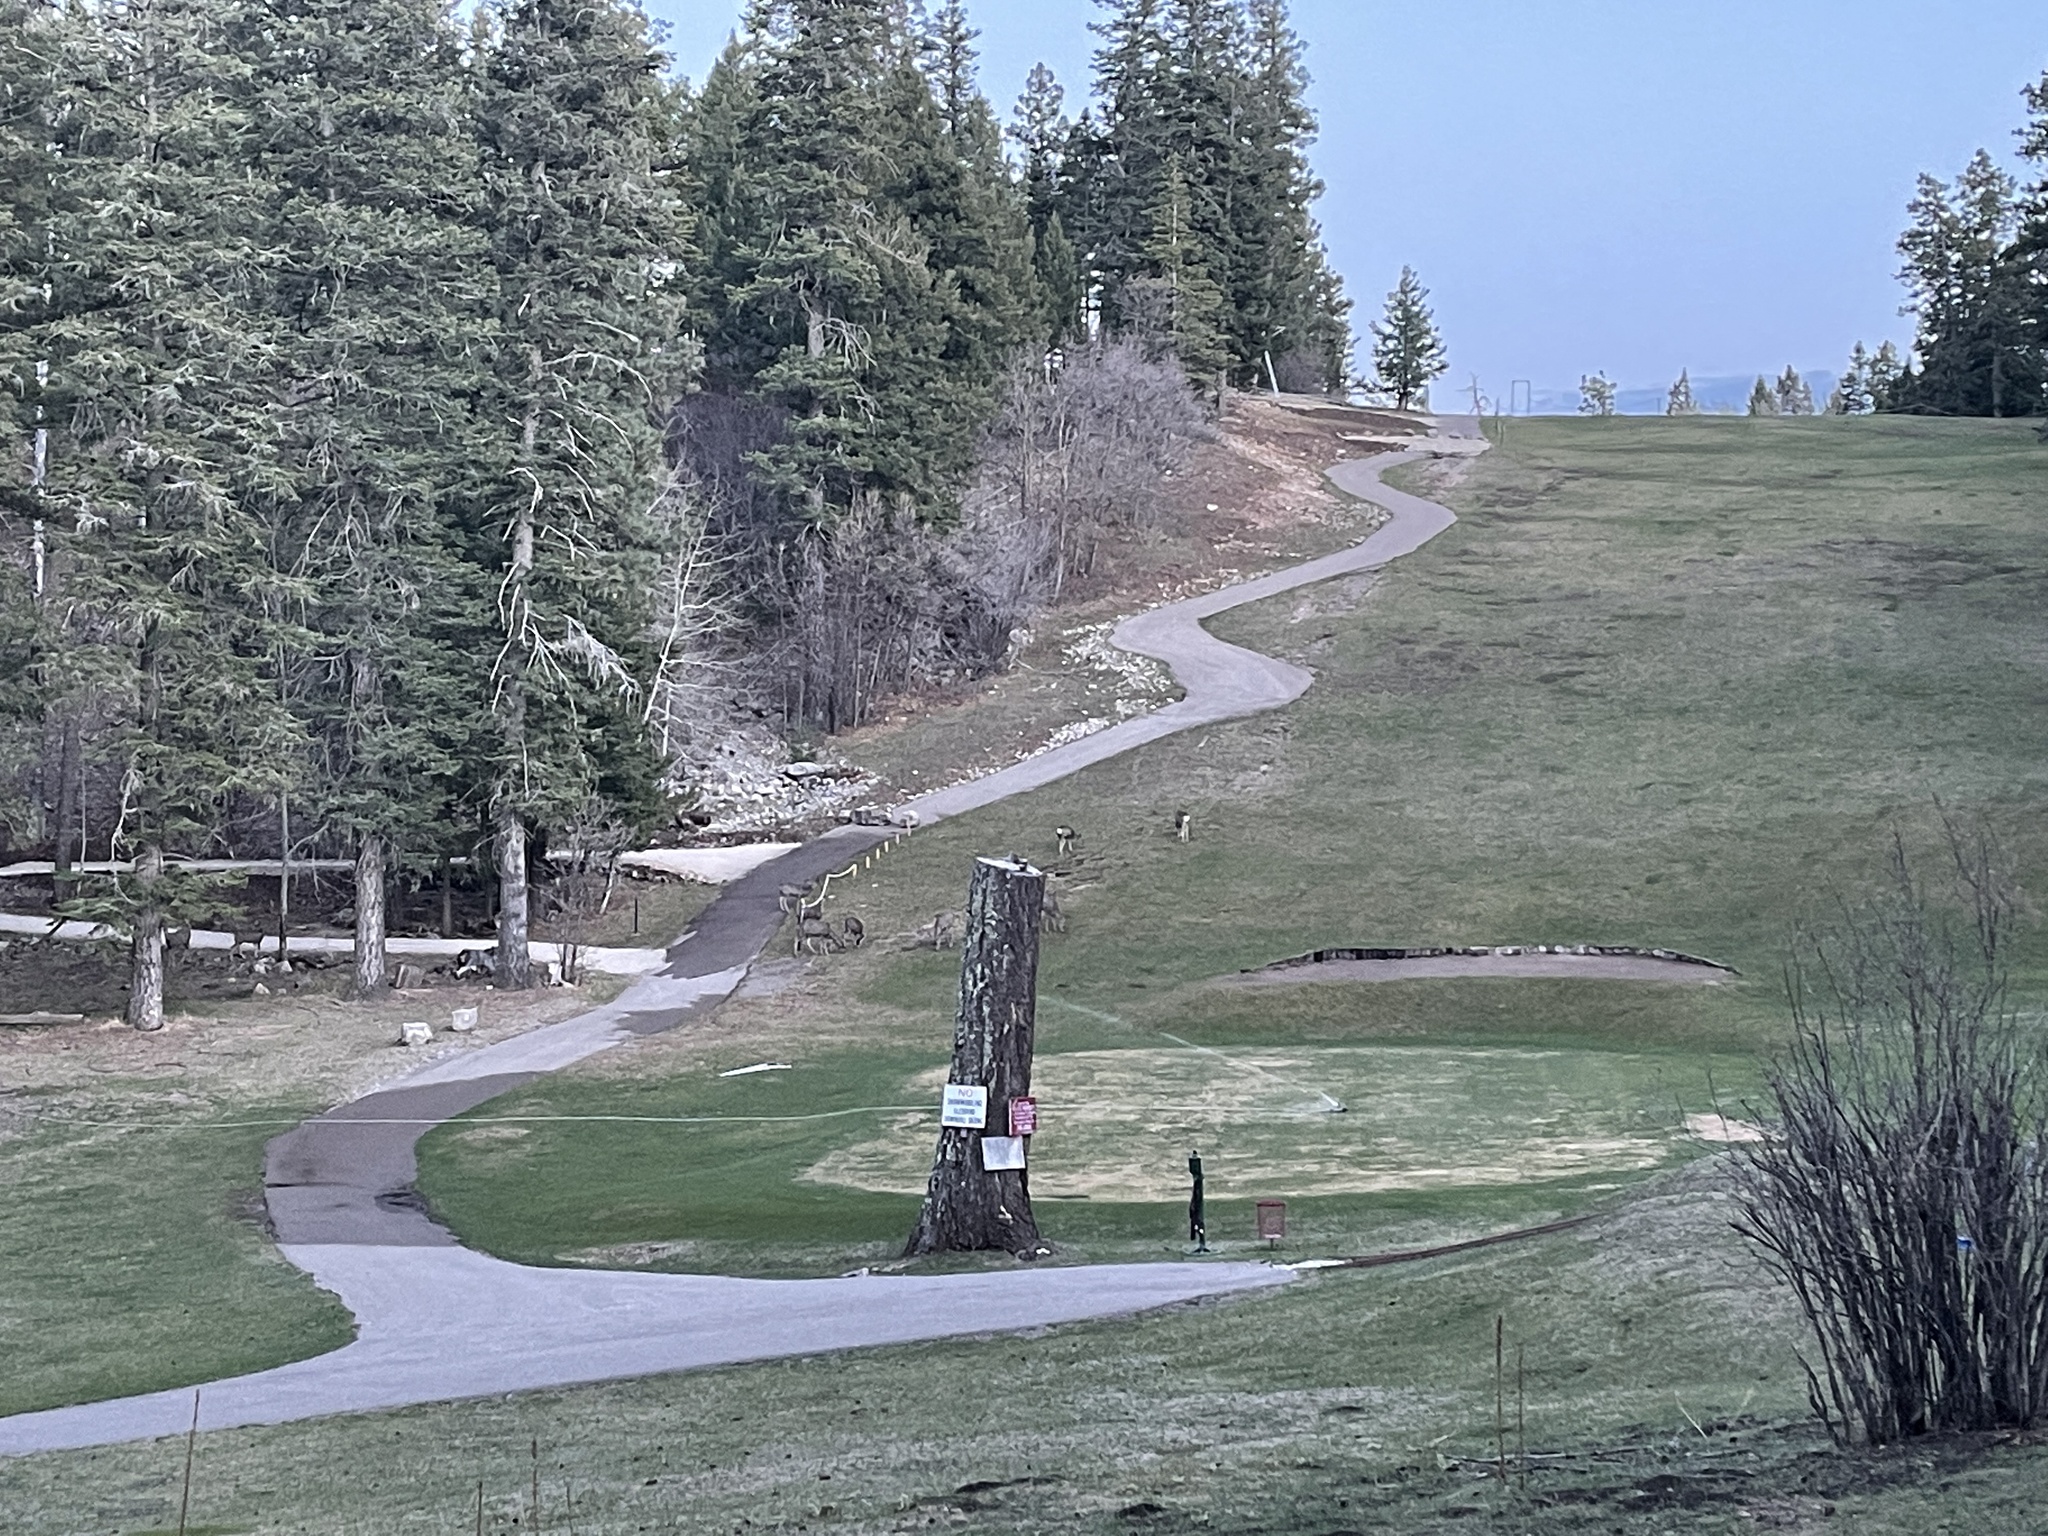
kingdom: Animalia
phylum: Chordata
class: Mammalia
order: Artiodactyla
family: Cervidae
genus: Odocoileus
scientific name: Odocoileus hemionus
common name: Mule deer
